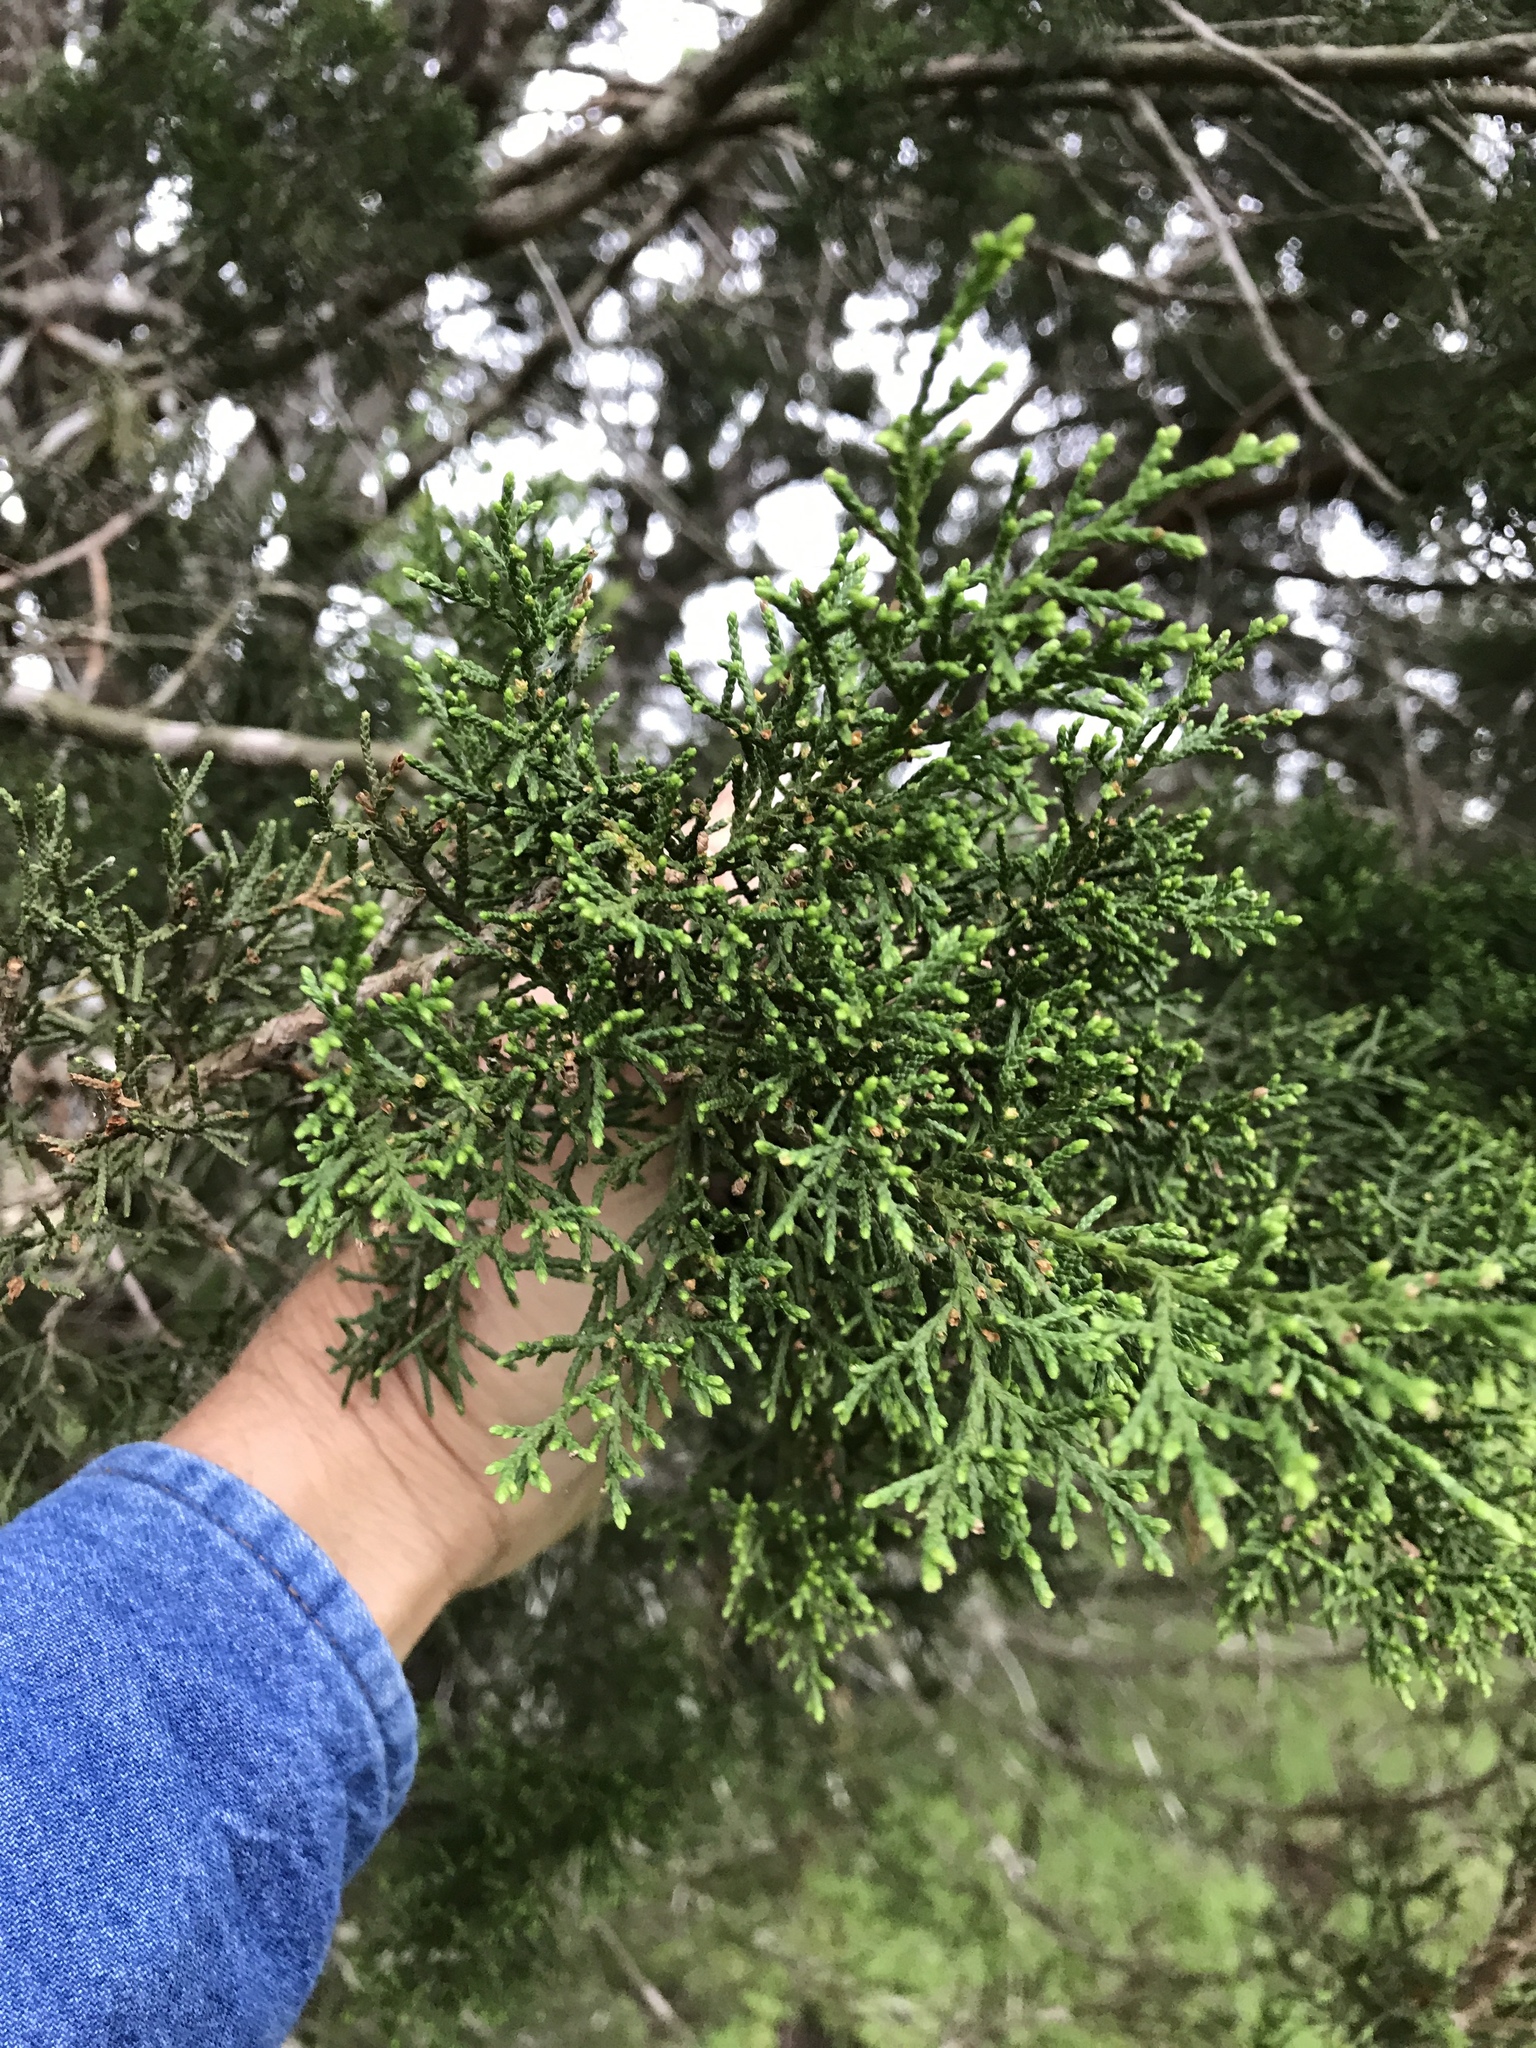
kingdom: Plantae
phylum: Tracheophyta
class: Pinopsida
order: Pinales
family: Cupressaceae
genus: Juniperus
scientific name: Juniperus ashei
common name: Mexican juniper
